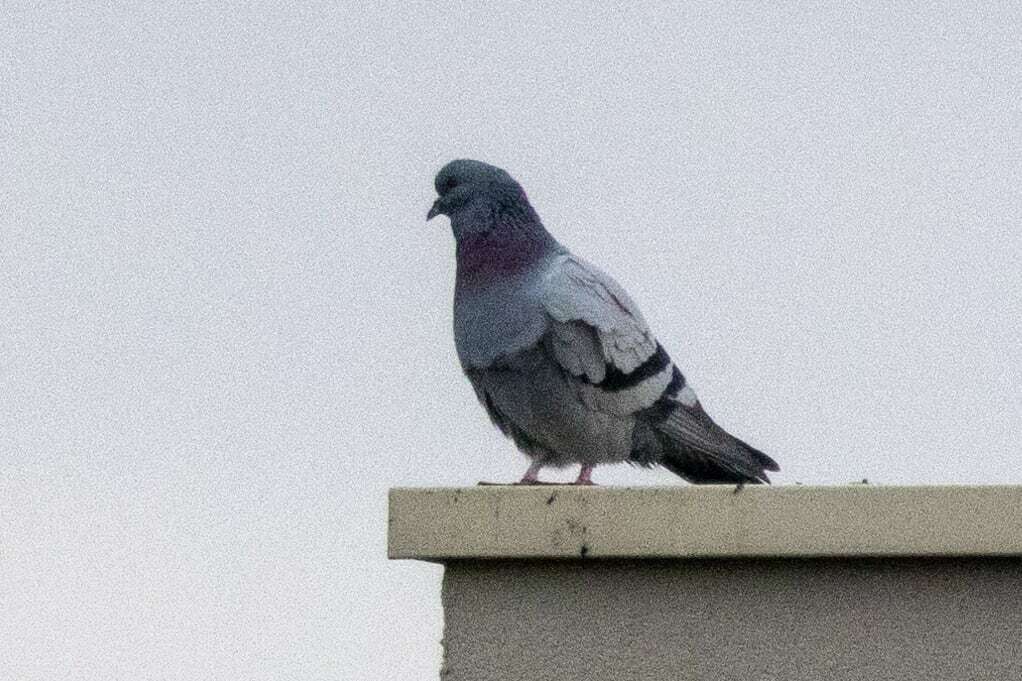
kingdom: Animalia
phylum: Chordata
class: Aves
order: Columbiformes
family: Columbidae
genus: Columba
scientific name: Columba livia
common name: Rock pigeon
